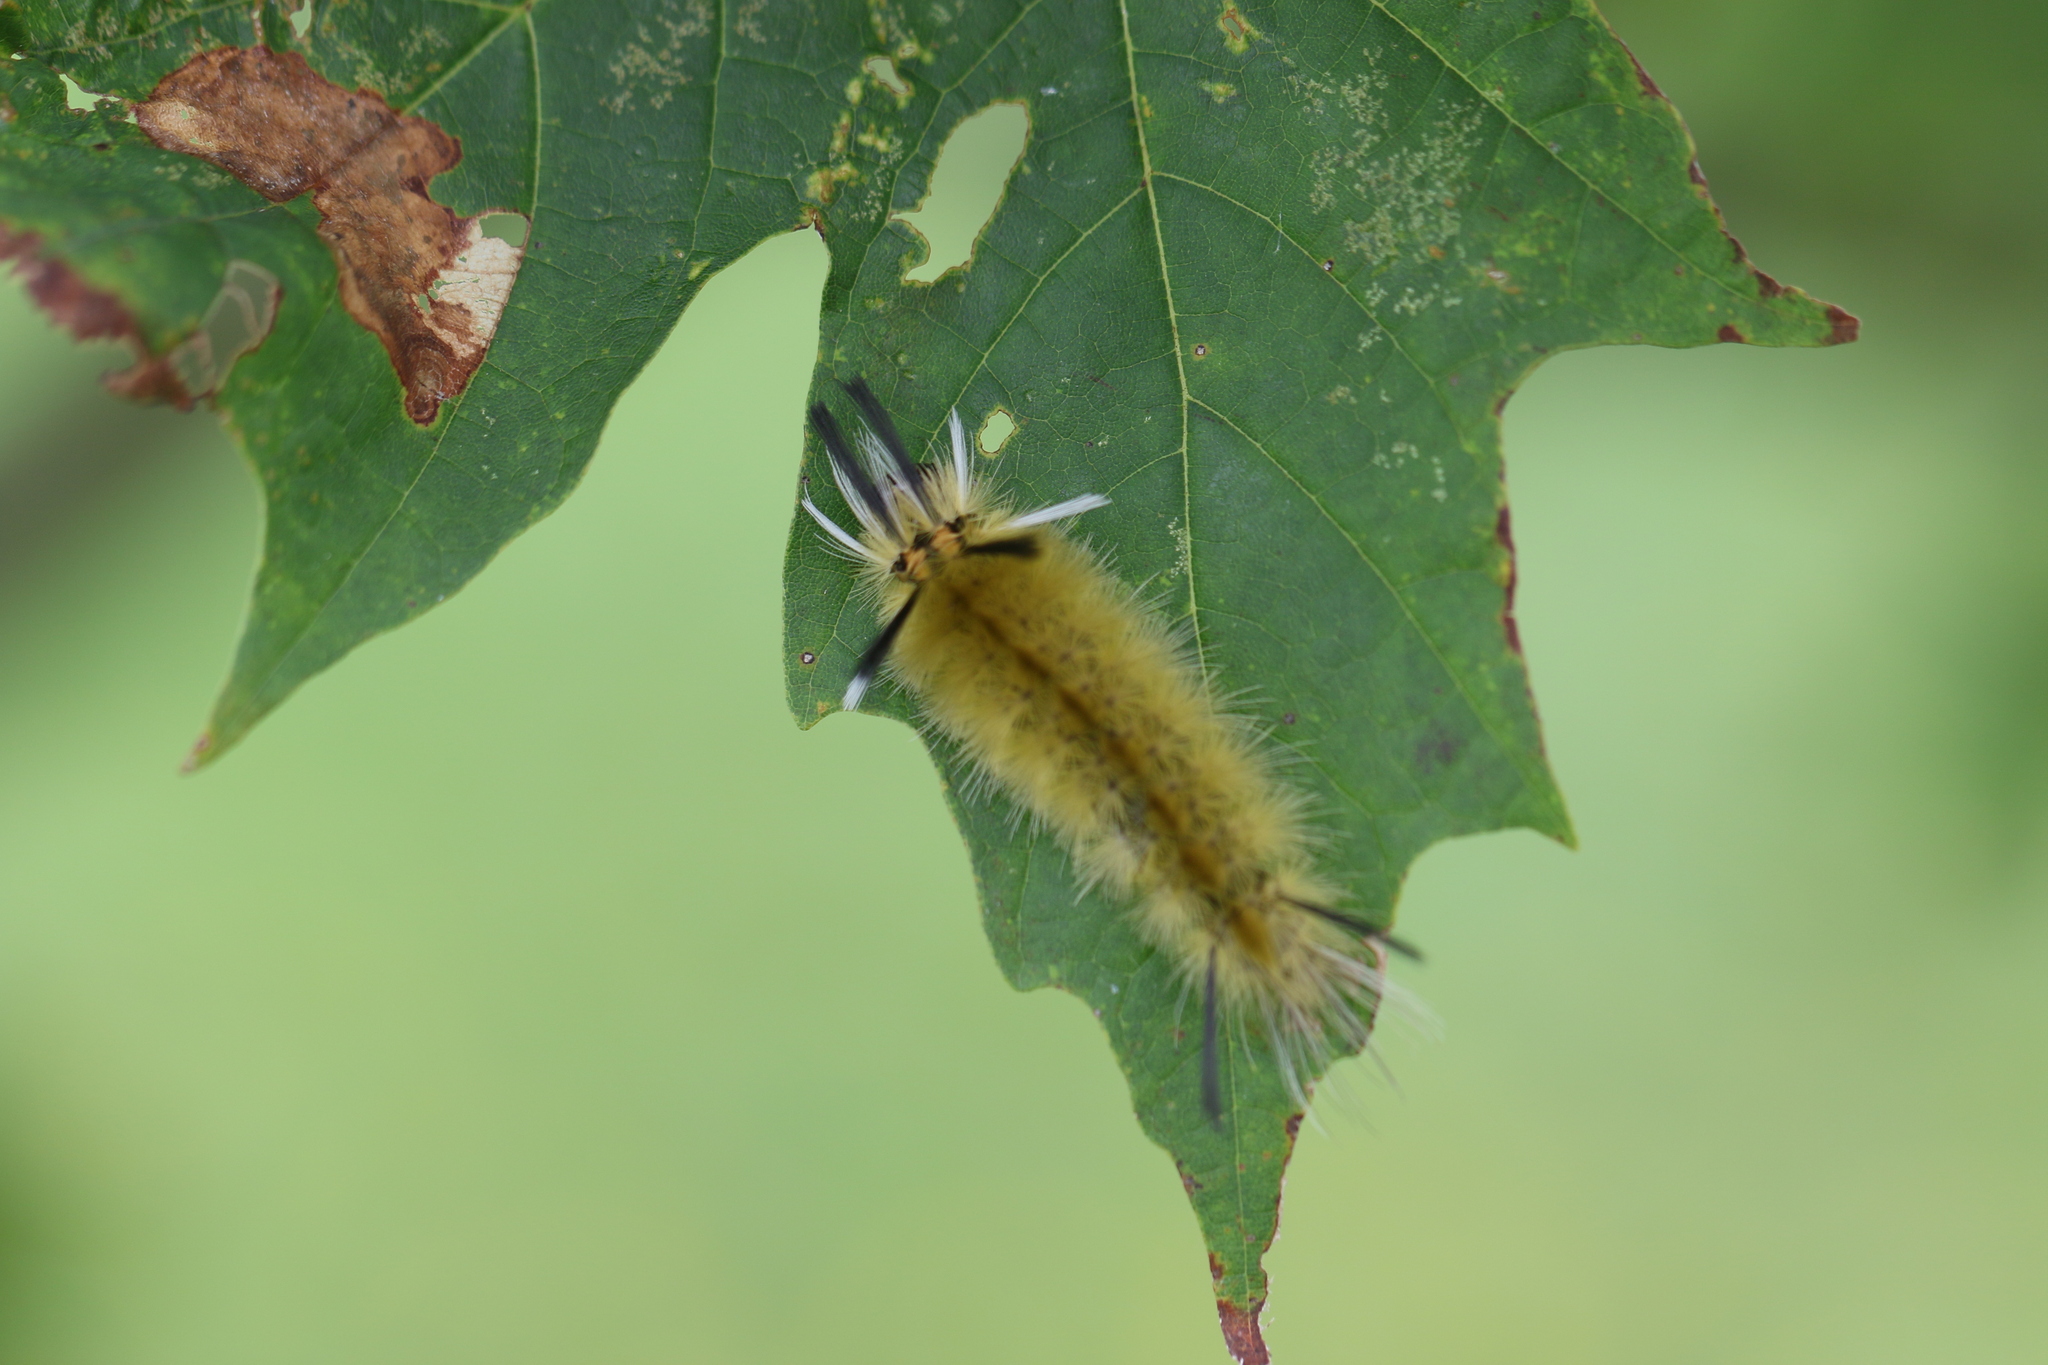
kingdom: Animalia
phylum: Arthropoda
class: Insecta
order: Lepidoptera
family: Erebidae
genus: Halysidota
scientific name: Halysidota tessellaris
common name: Banded tussock moth
